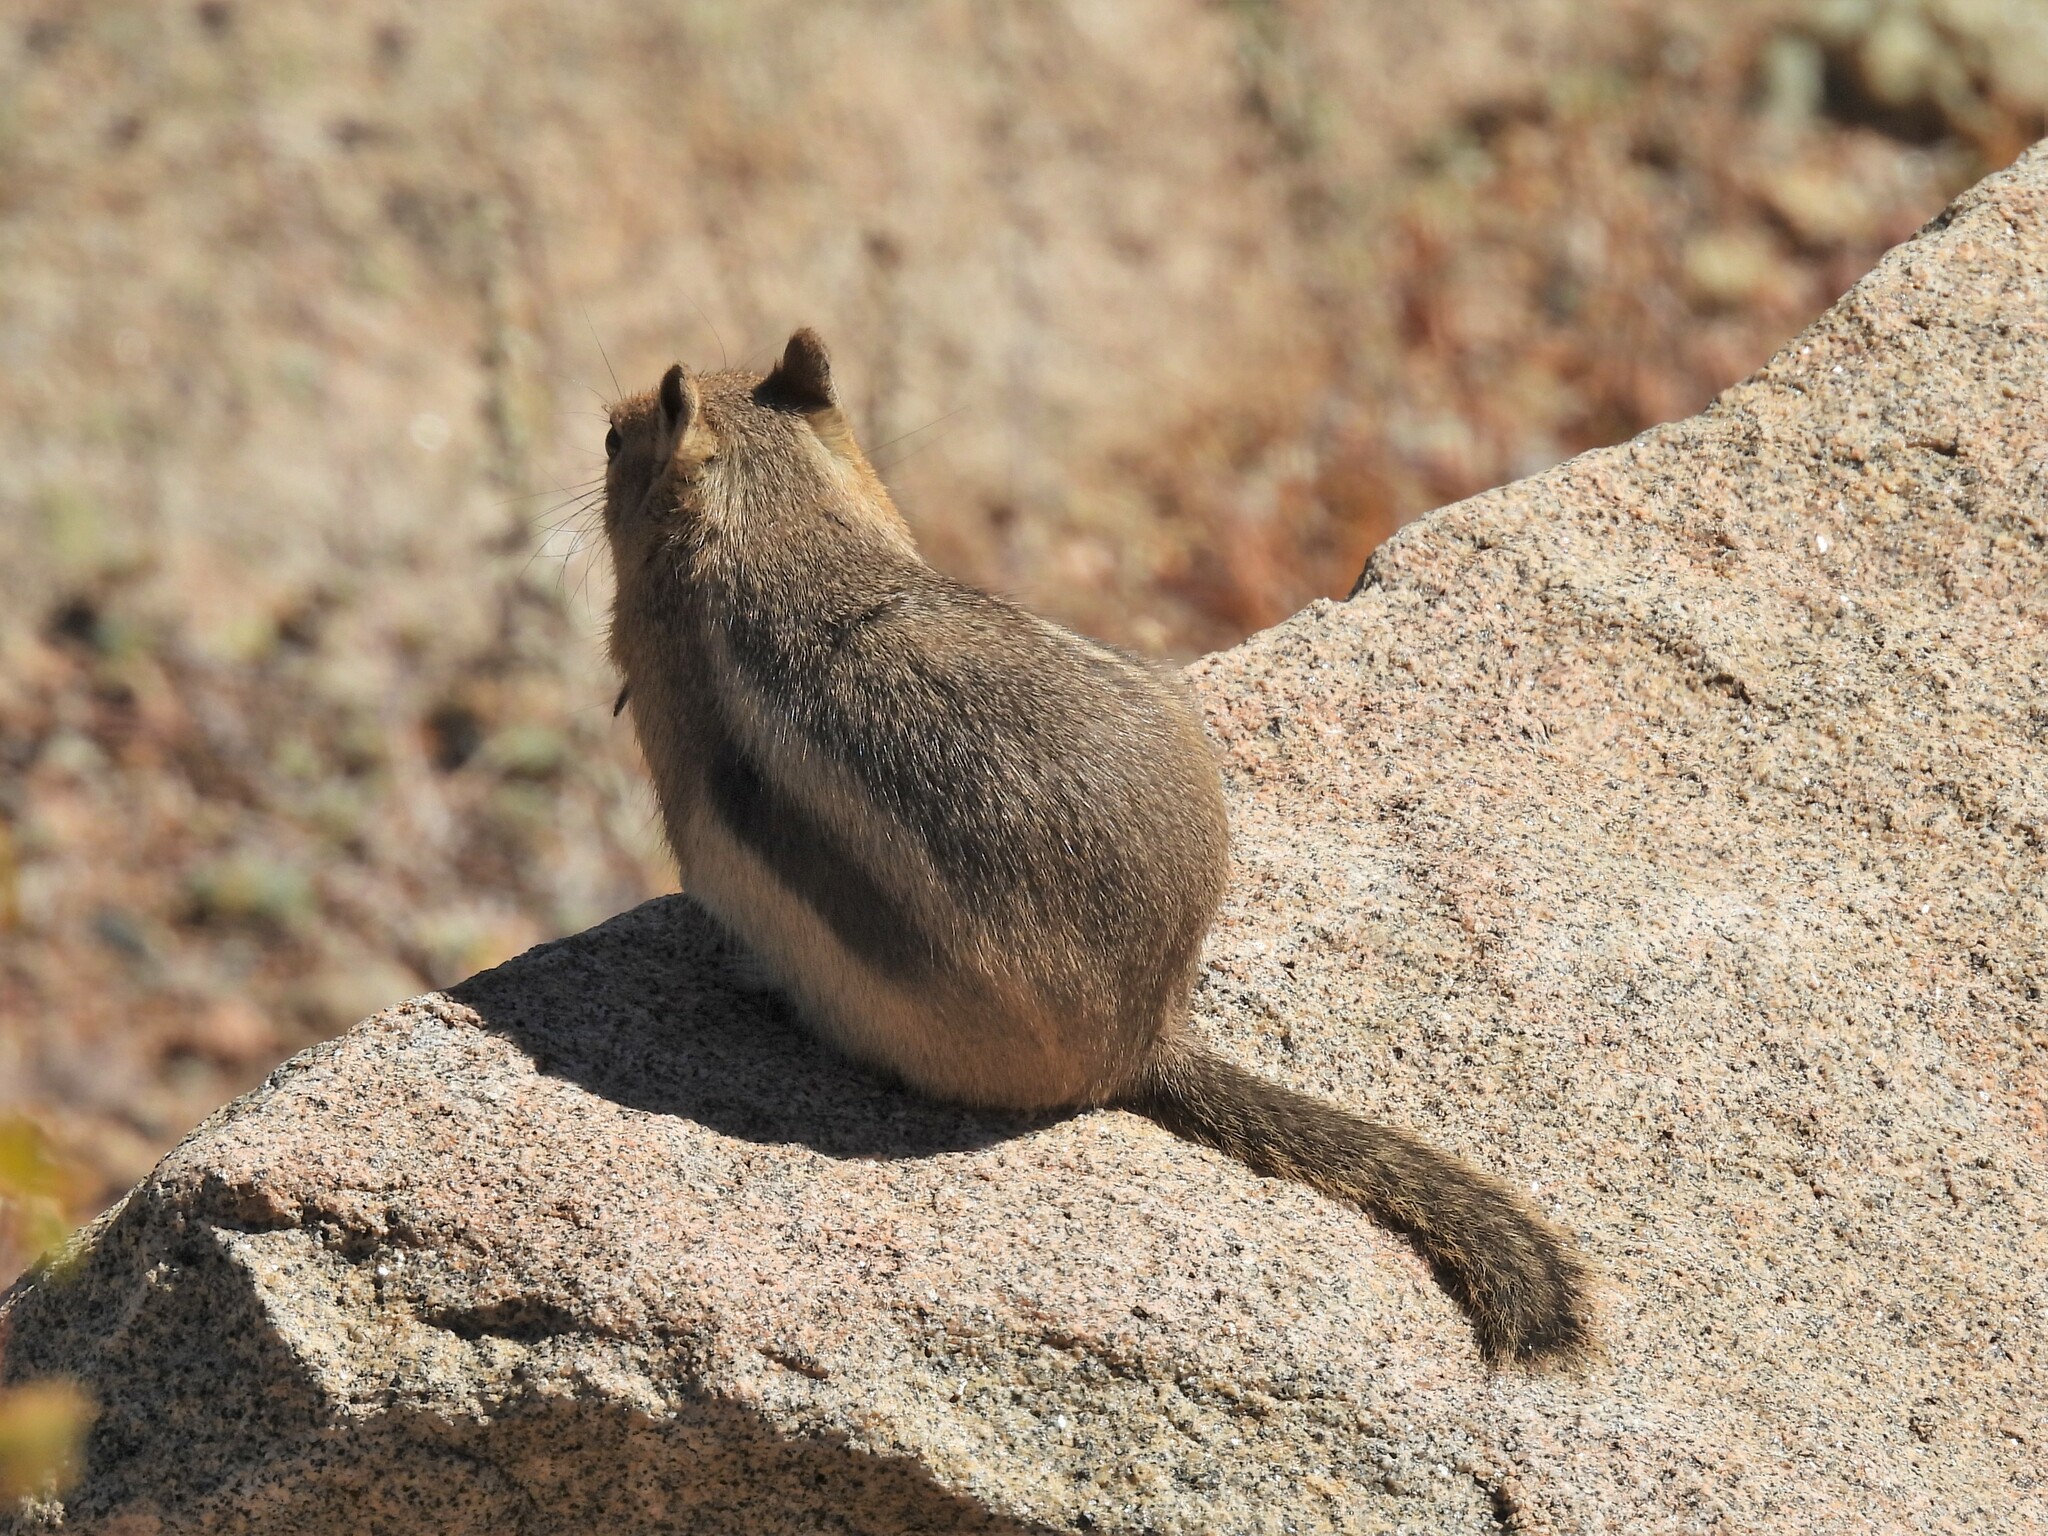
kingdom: Animalia
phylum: Chordata
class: Mammalia
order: Rodentia
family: Sciuridae
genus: Callospermophilus
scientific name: Callospermophilus lateralis
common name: Golden-mantled ground squirrel
